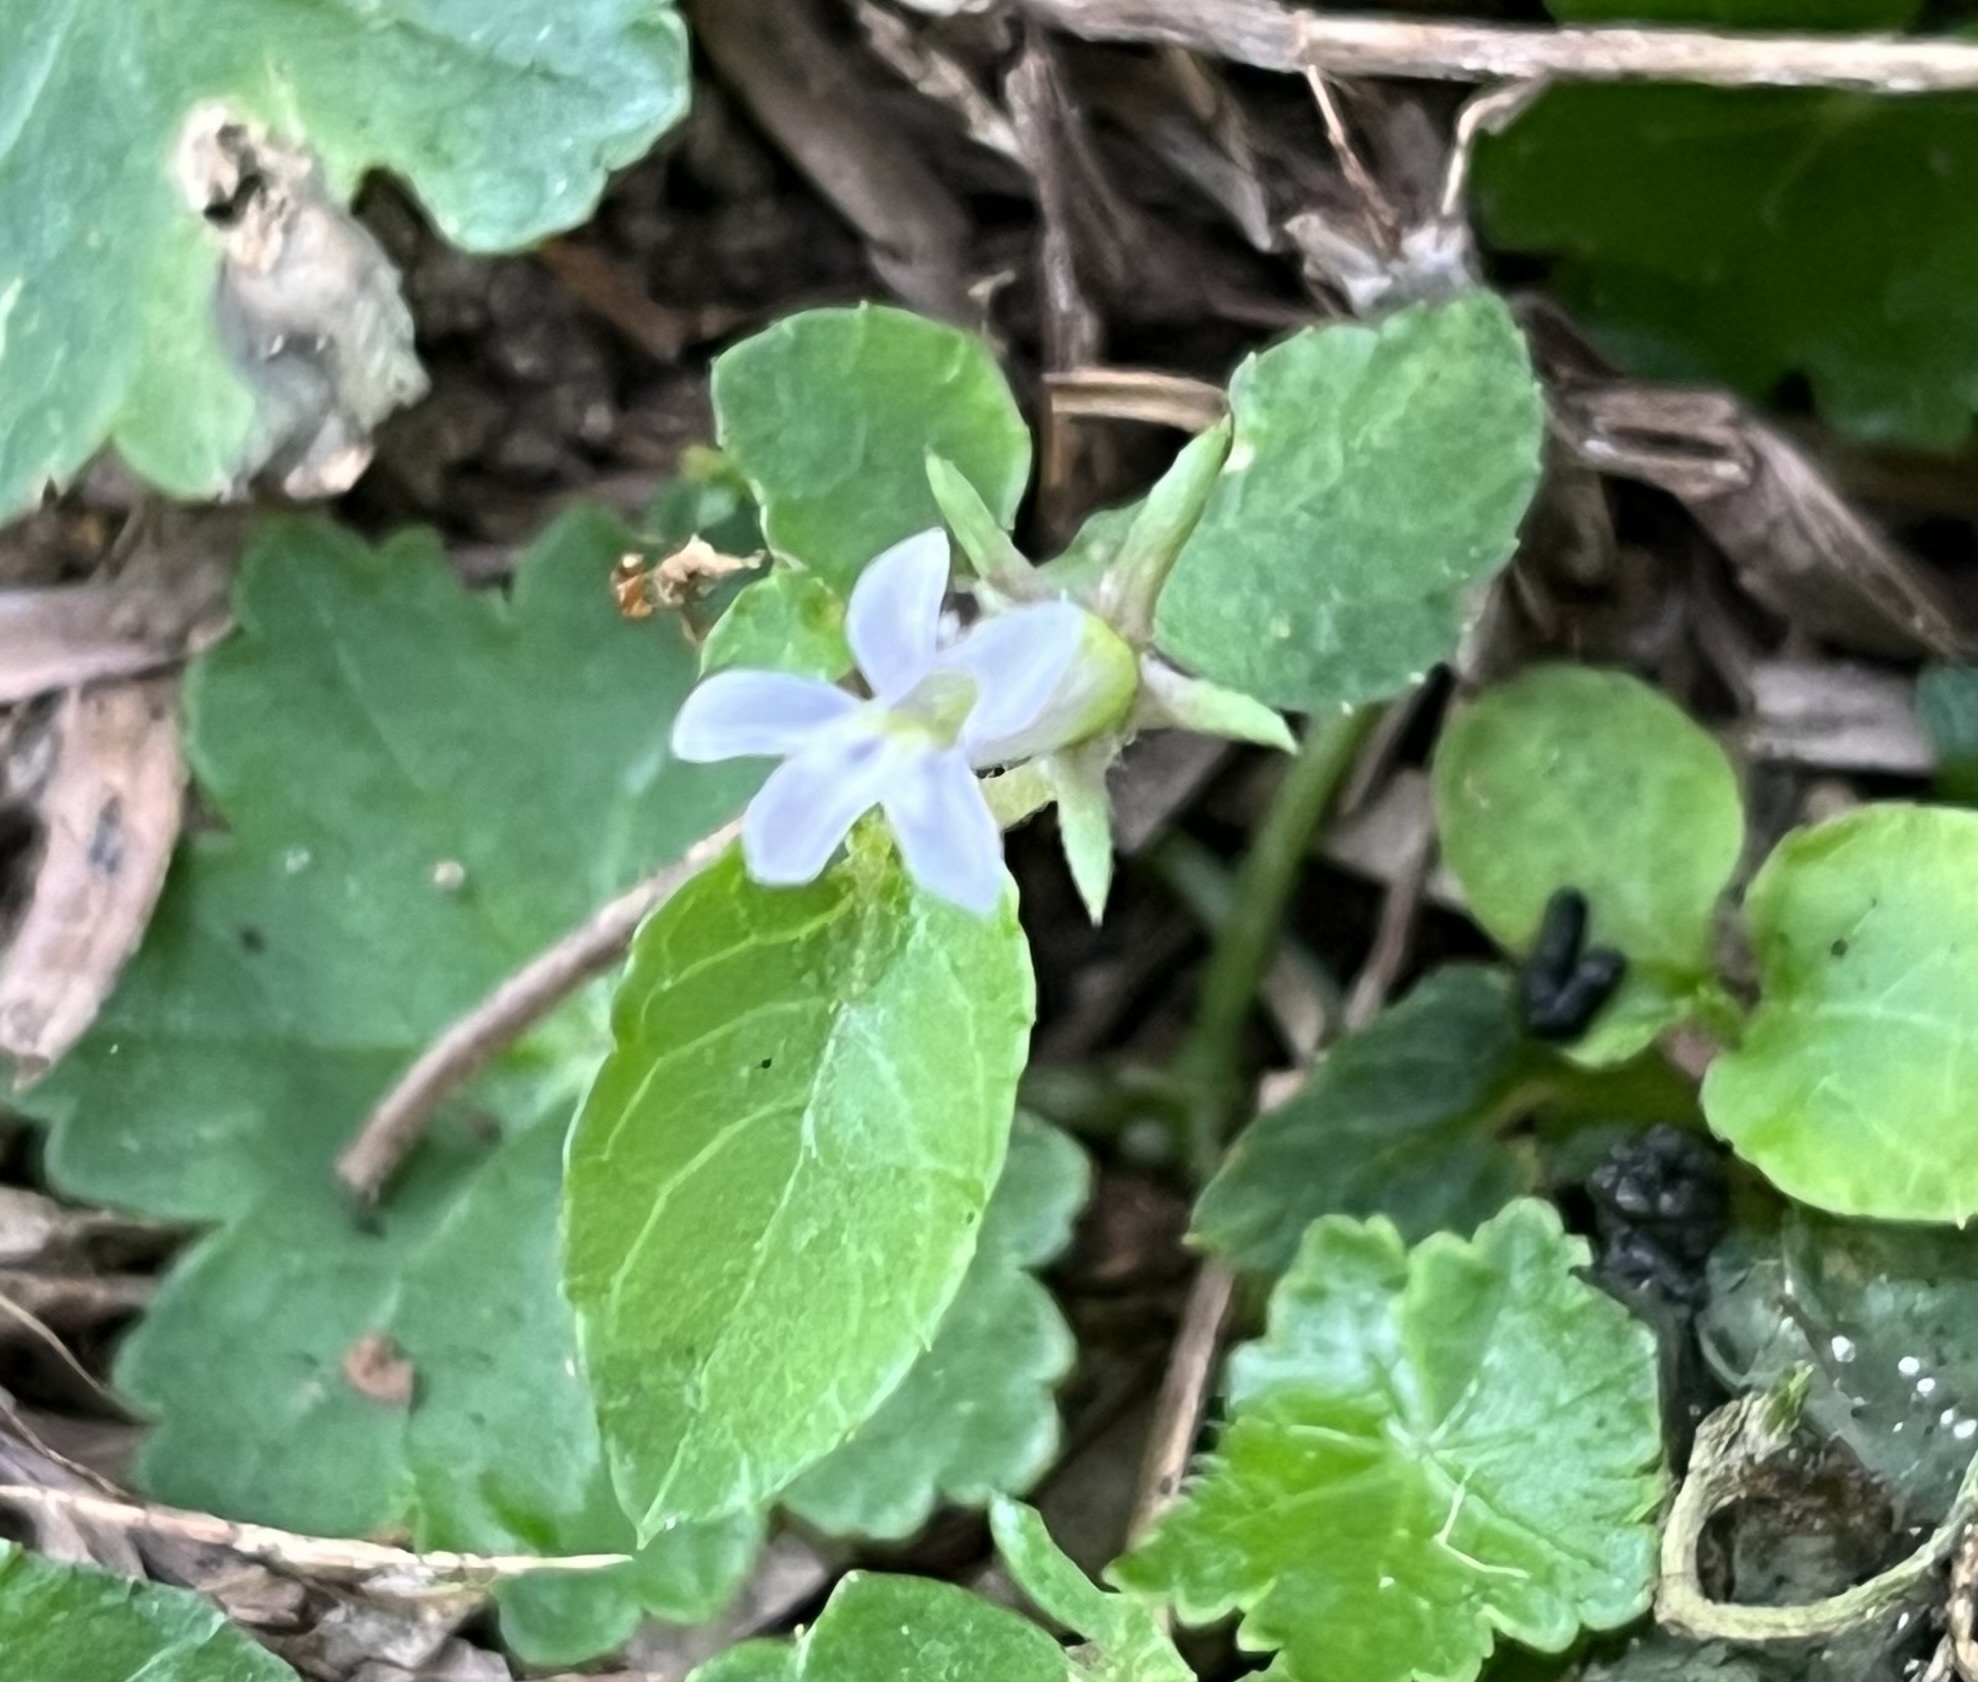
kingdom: Plantae
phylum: Tracheophyta
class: Magnoliopsida
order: Asterales
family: Campanulaceae
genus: Lobelia
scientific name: Lobelia zeylanica
